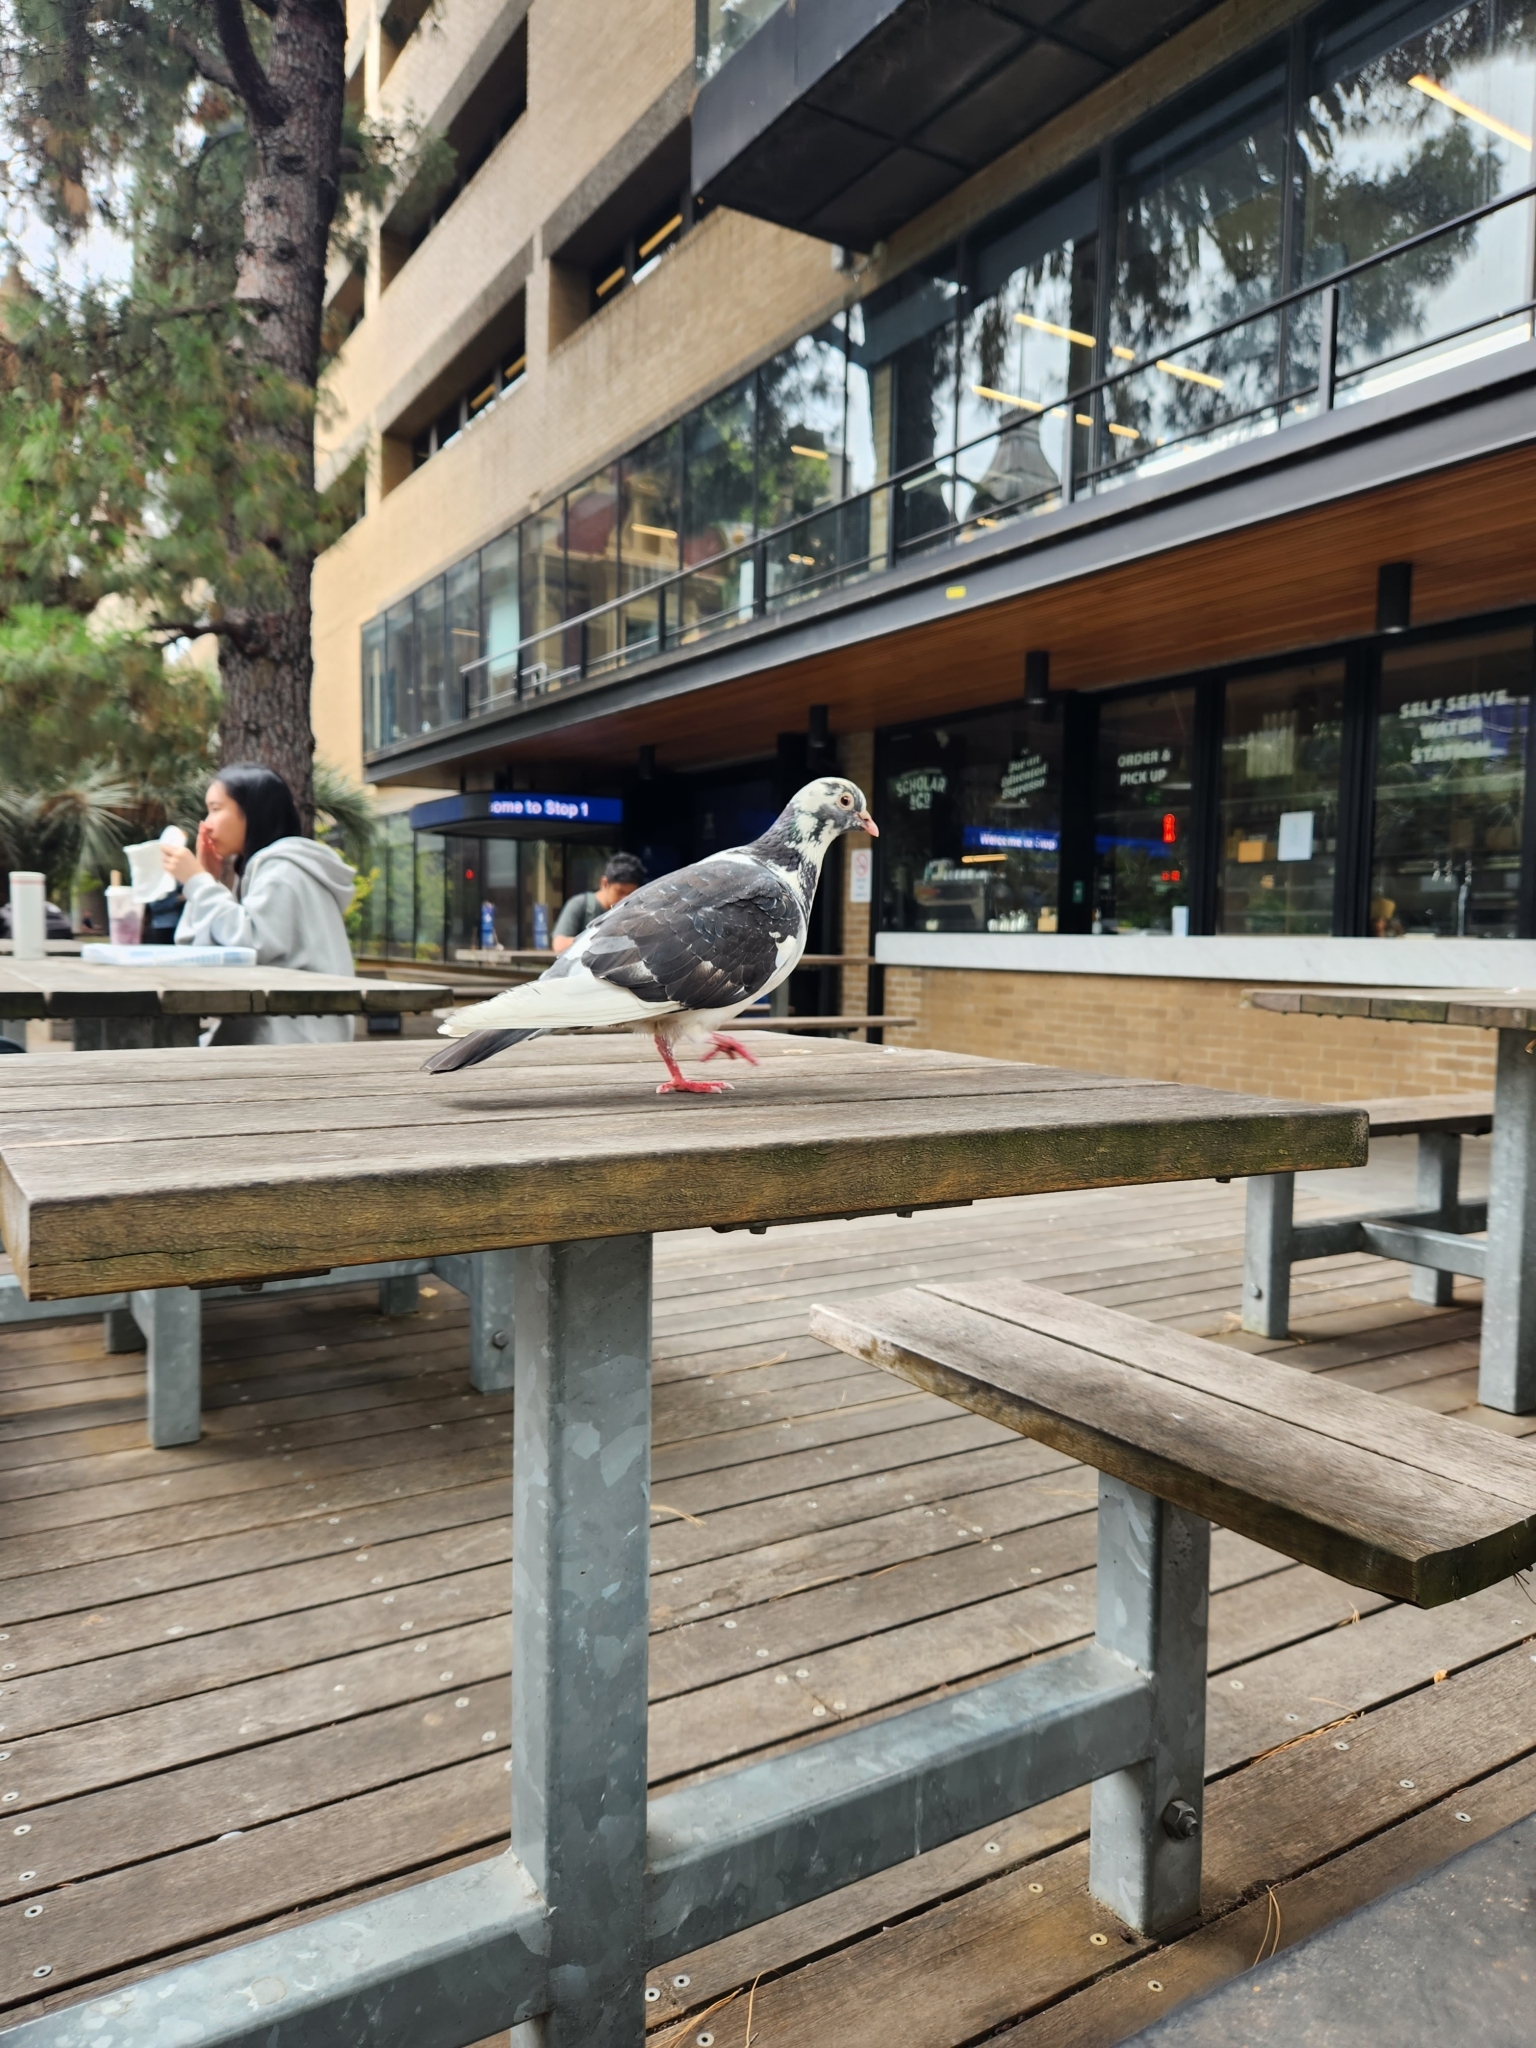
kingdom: Animalia
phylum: Chordata
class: Aves
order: Columbiformes
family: Columbidae
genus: Columba
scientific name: Columba livia
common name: Rock pigeon
